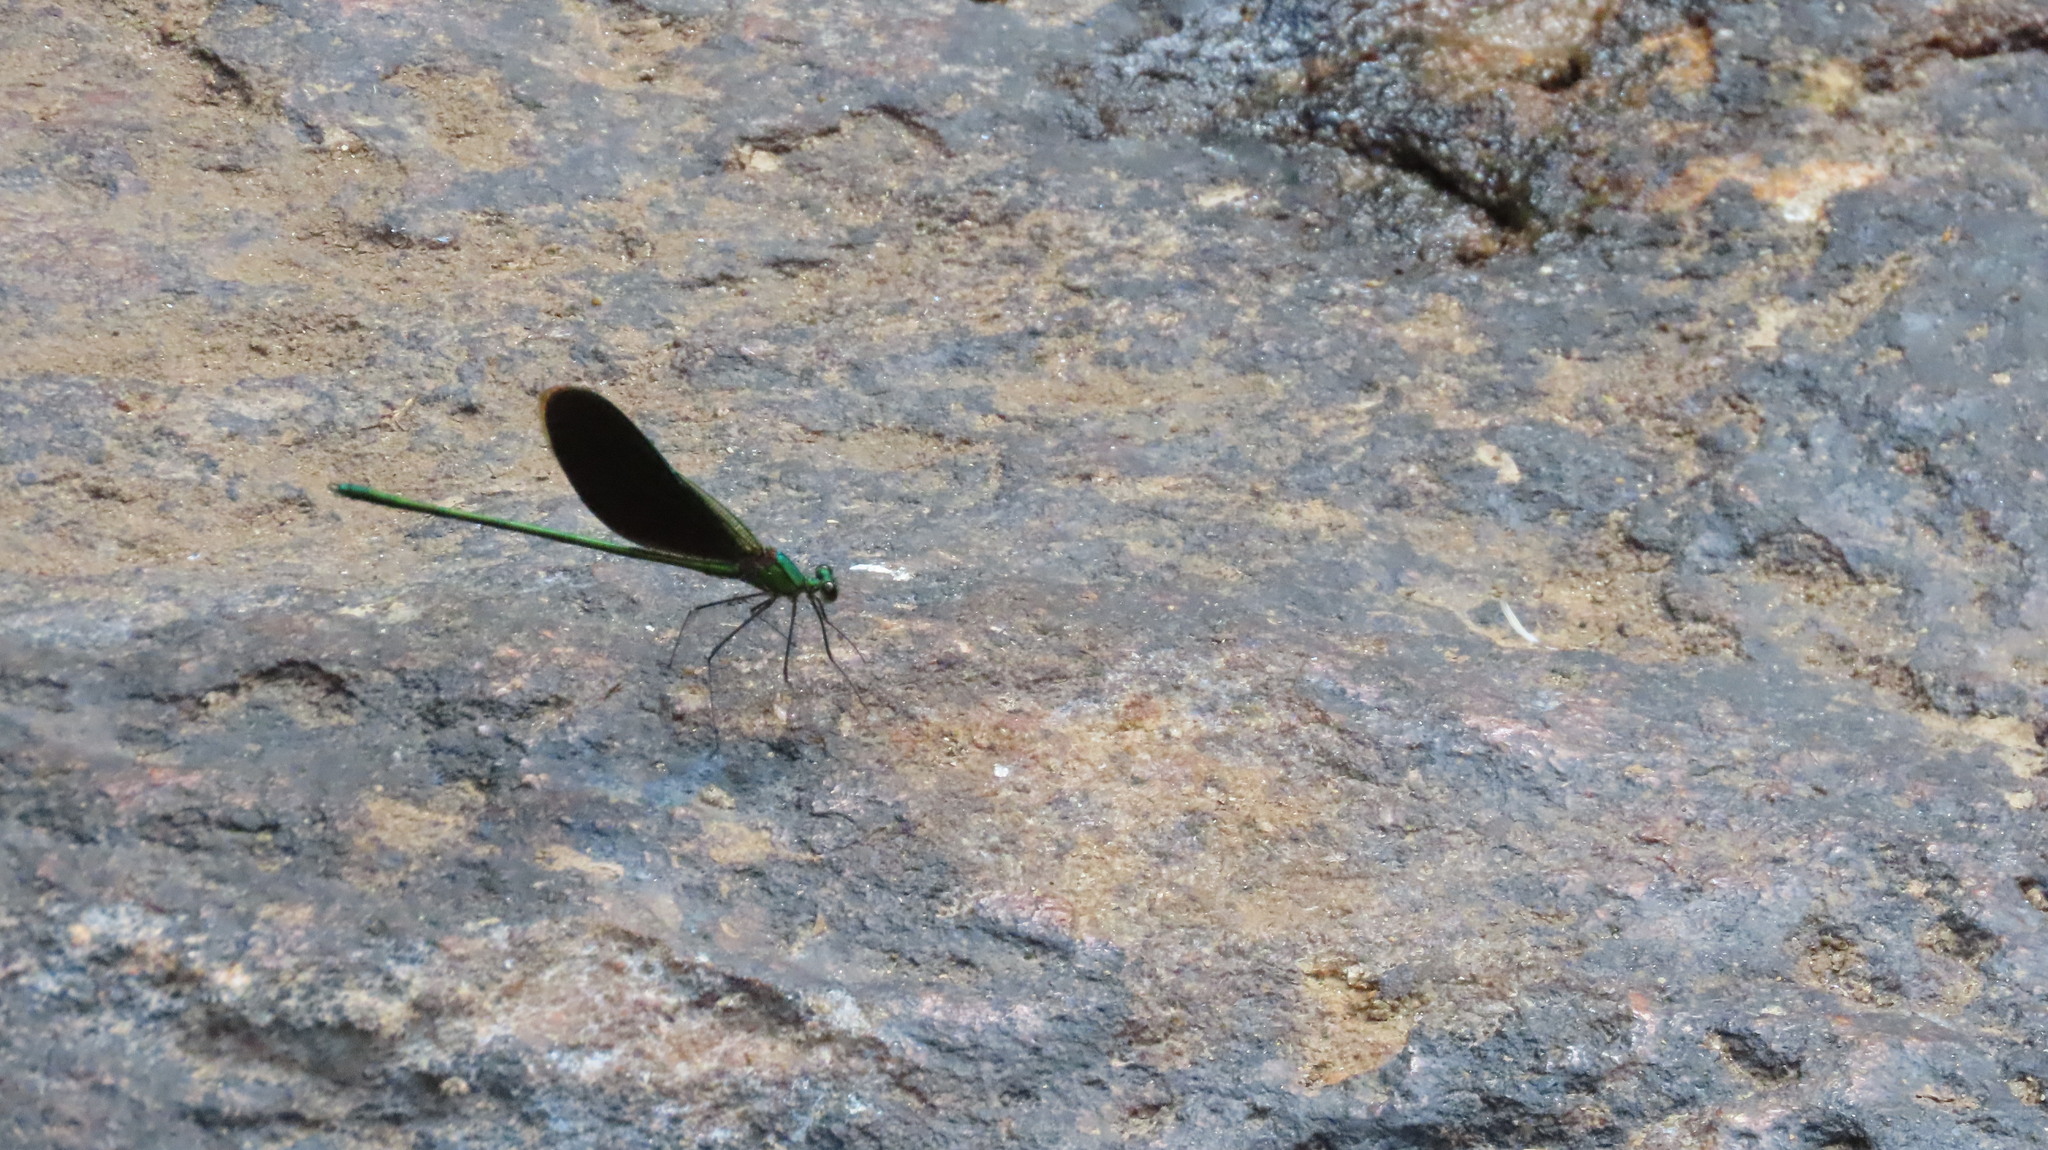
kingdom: Animalia
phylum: Arthropoda
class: Insecta
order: Odonata
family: Calopterygidae
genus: Neurobasis
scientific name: Neurobasis chinensis
